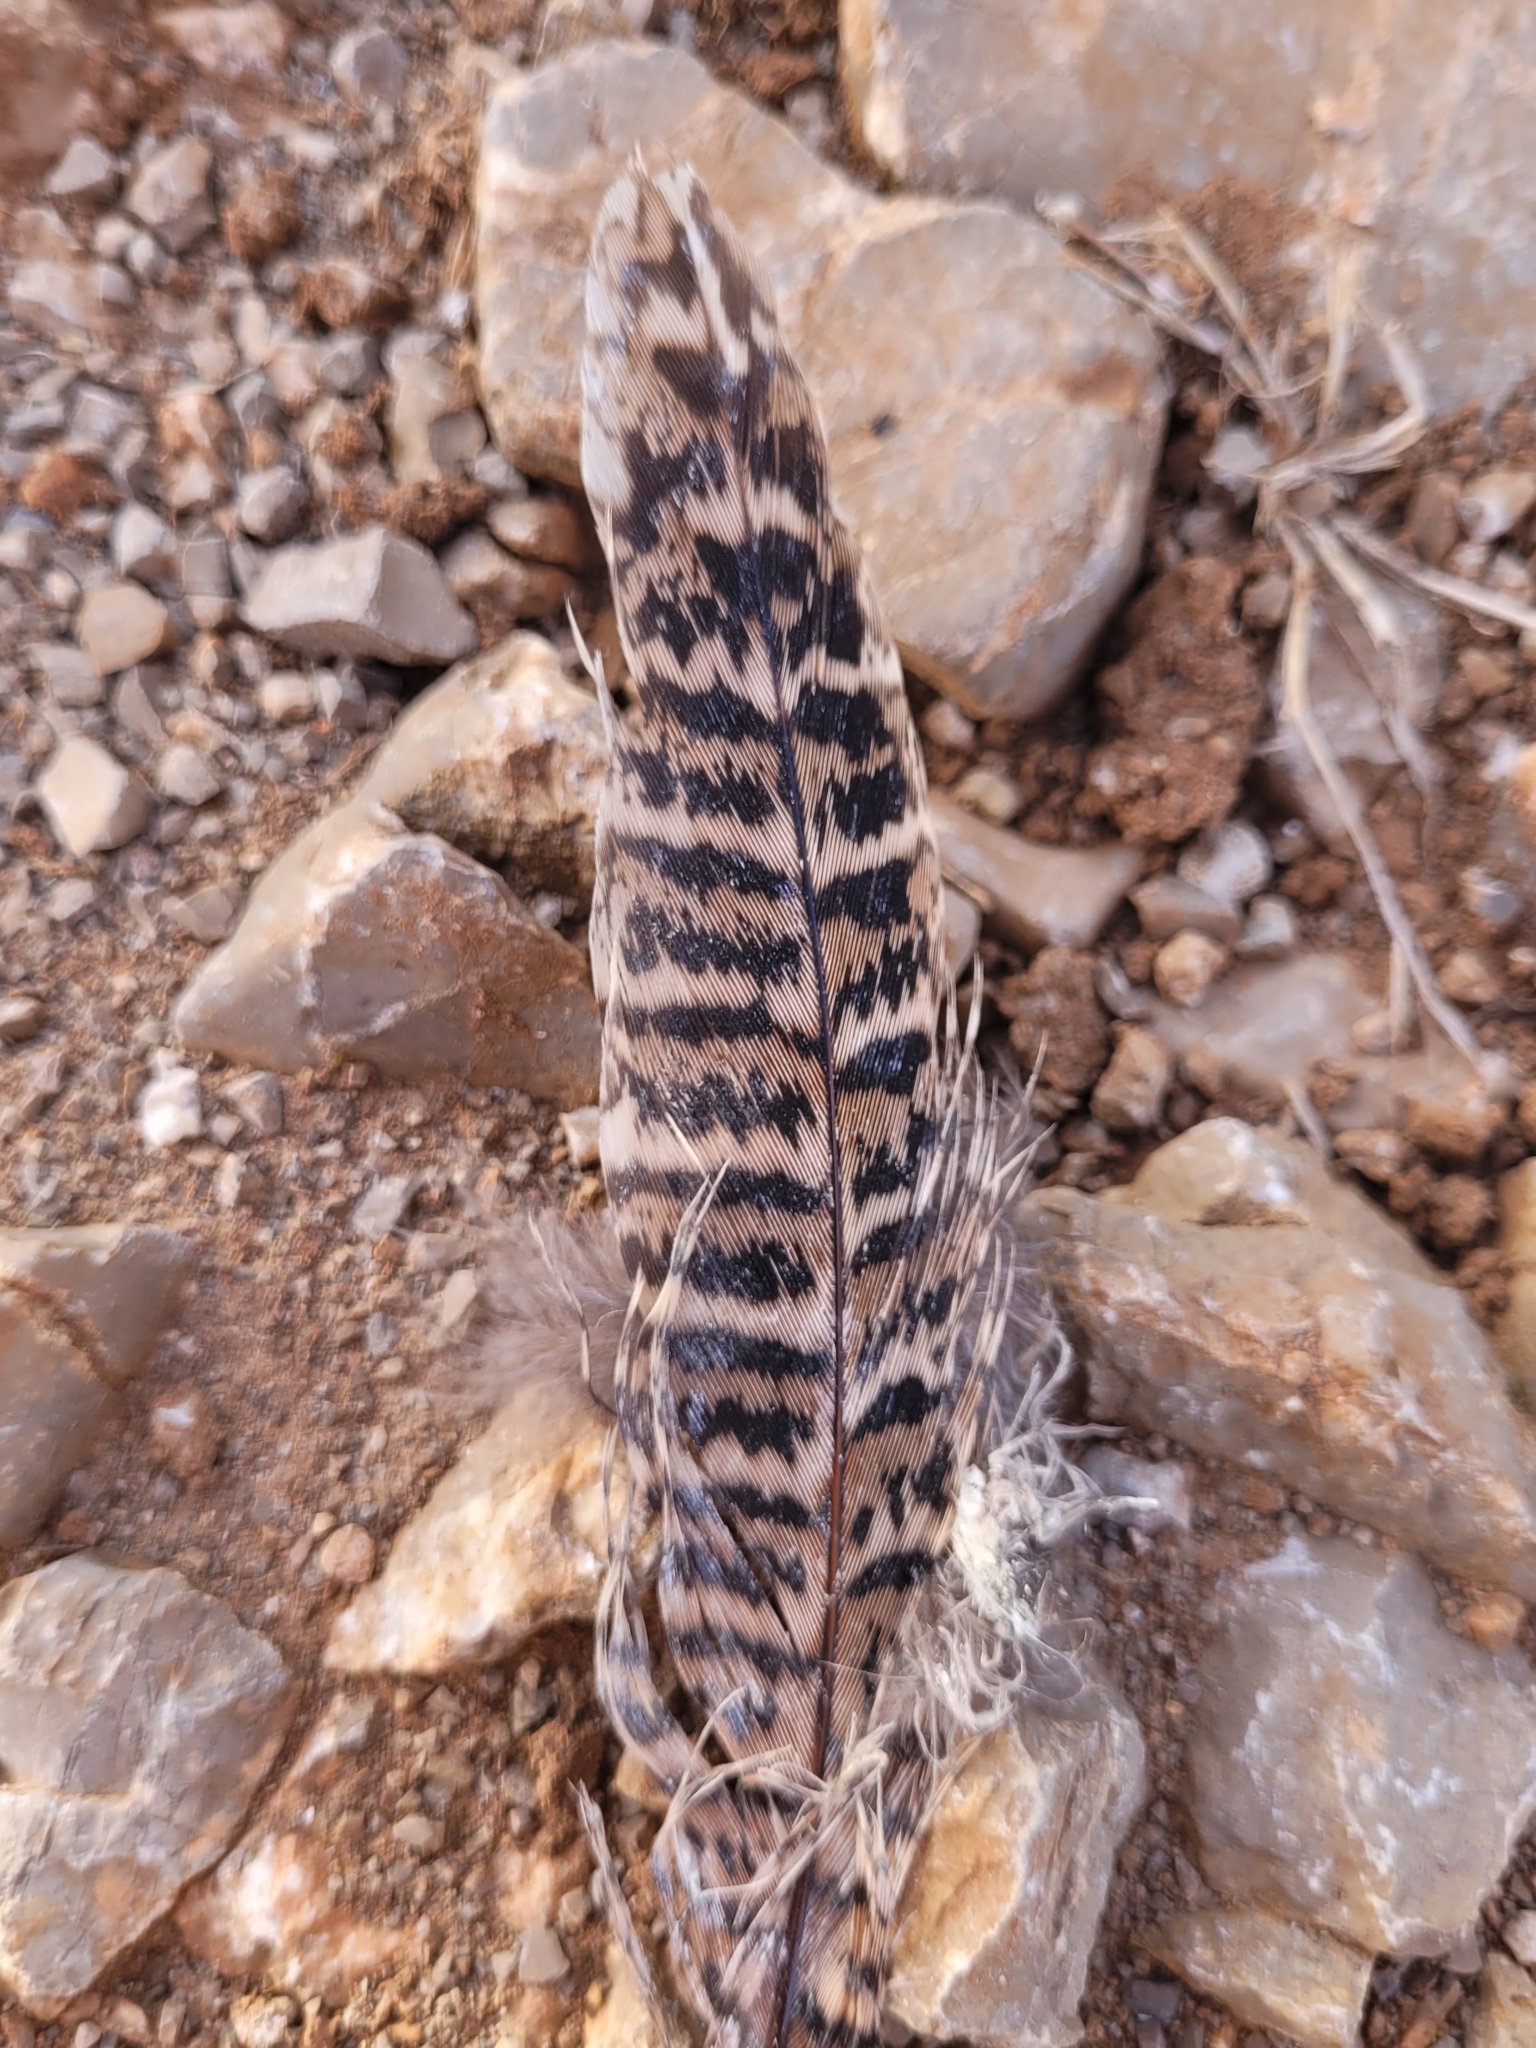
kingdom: Animalia
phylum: Chordata
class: Aves
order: Galliformes
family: Phasianidae
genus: Phasianus
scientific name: Phasianus colchicus
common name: Common pheasant
